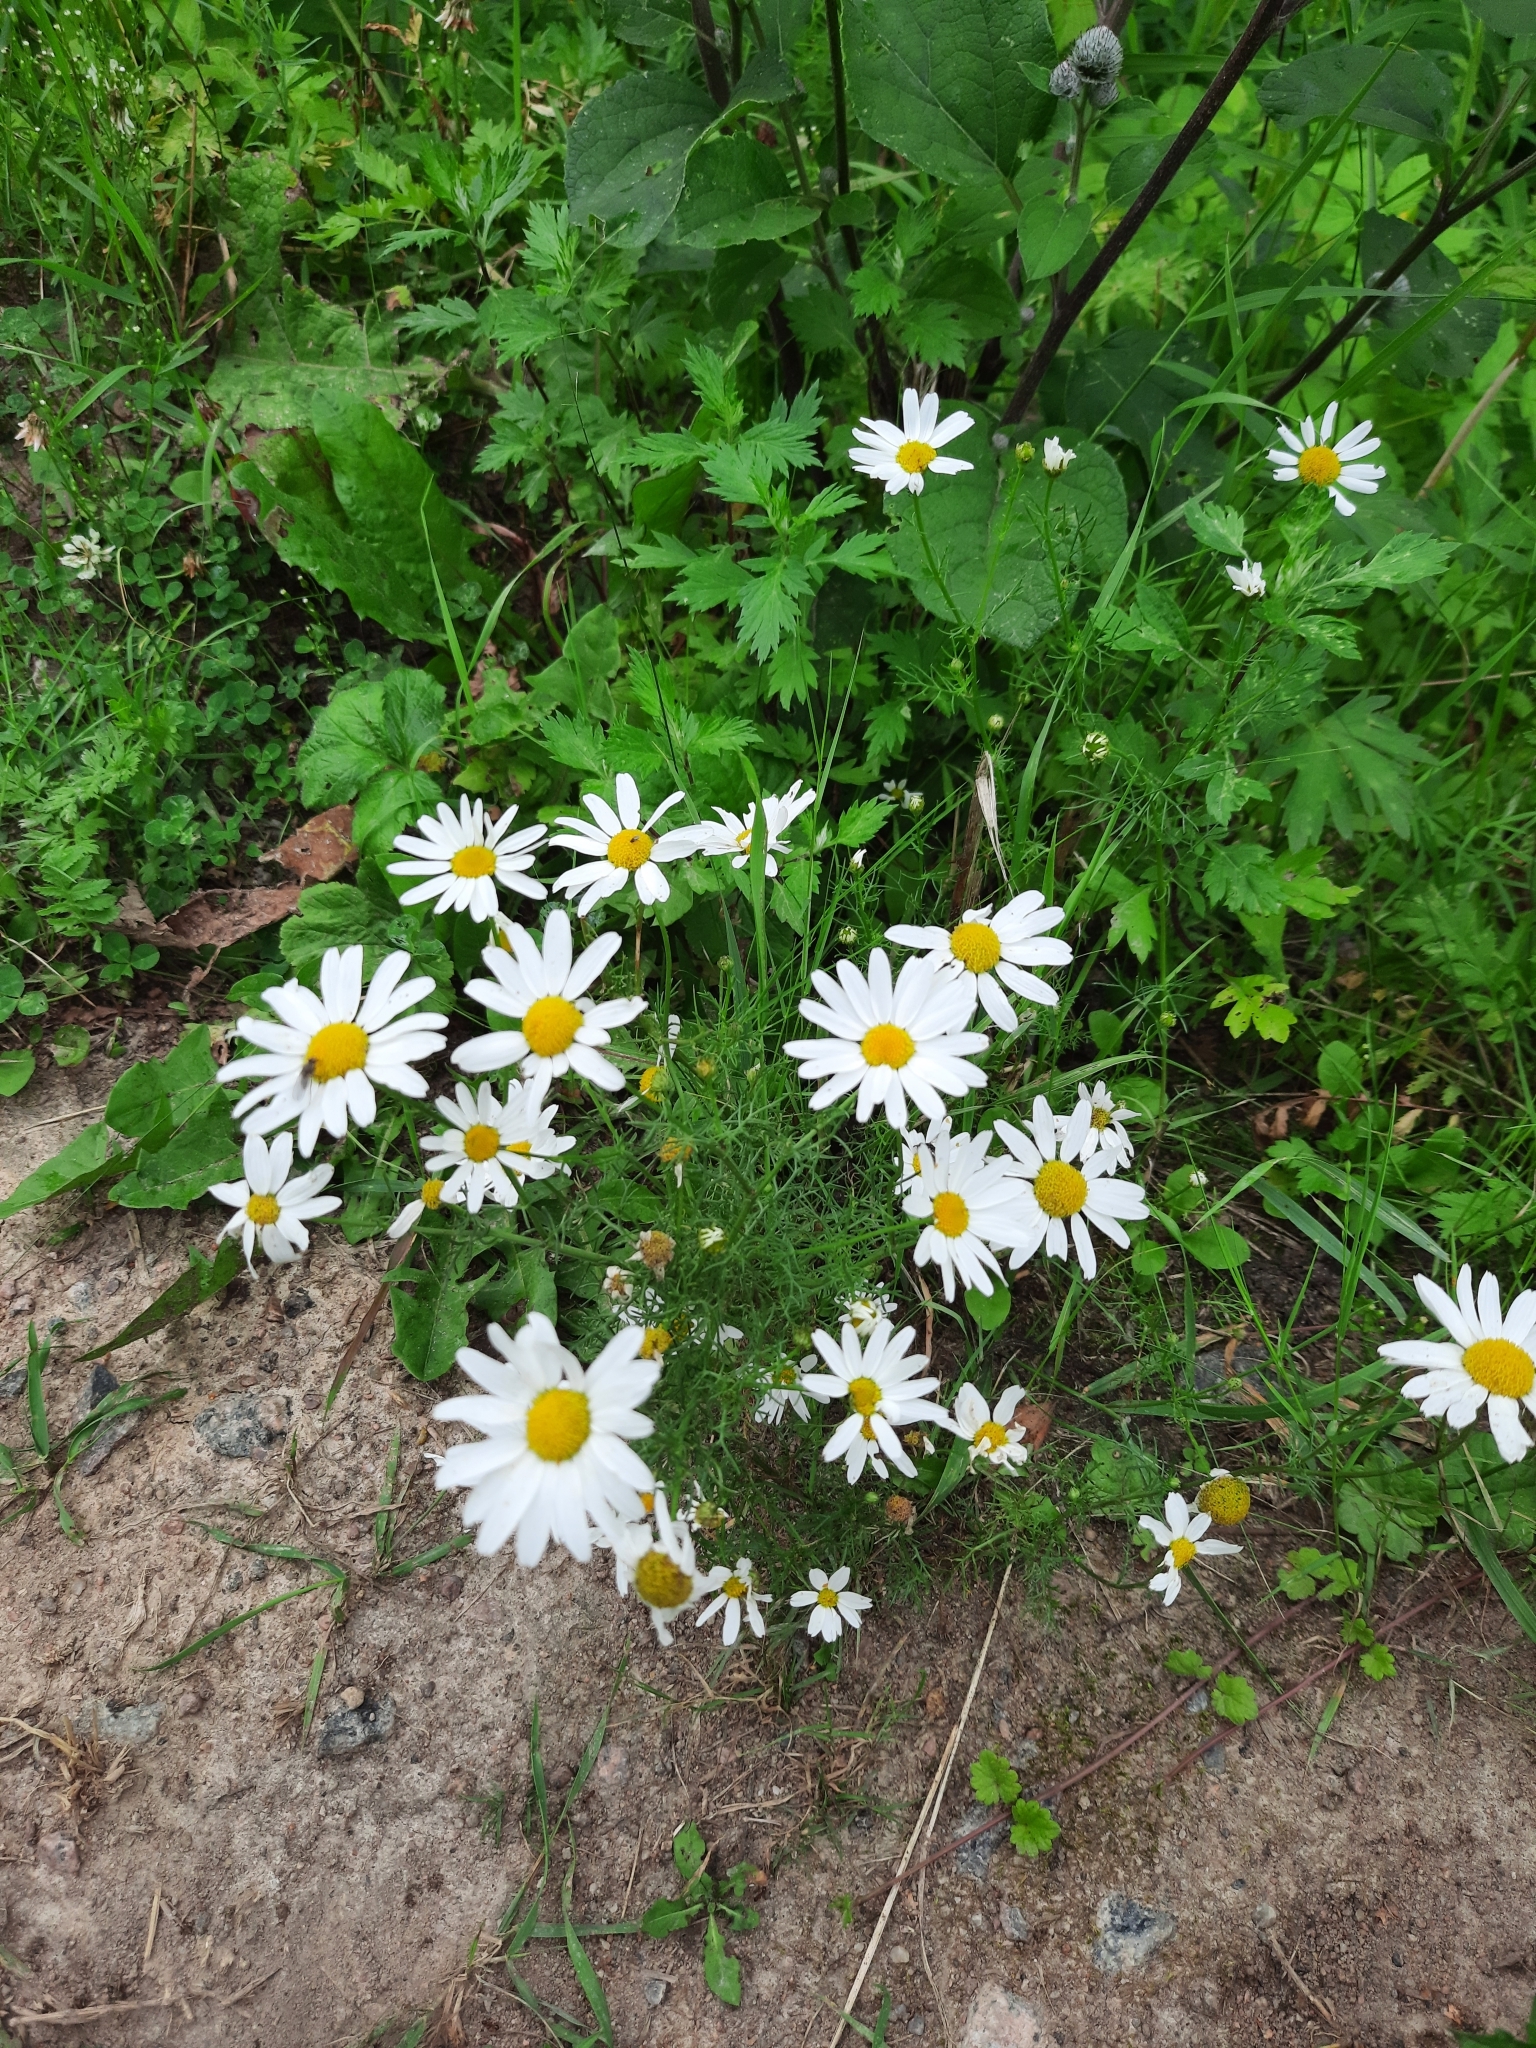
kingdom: Plantae
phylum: Tracheophyta
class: Magnoliopsida
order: Asterales
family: Asteraceae
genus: Tripleurospermum
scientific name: Tripleurospermum inodorum
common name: Scentless mayweed
